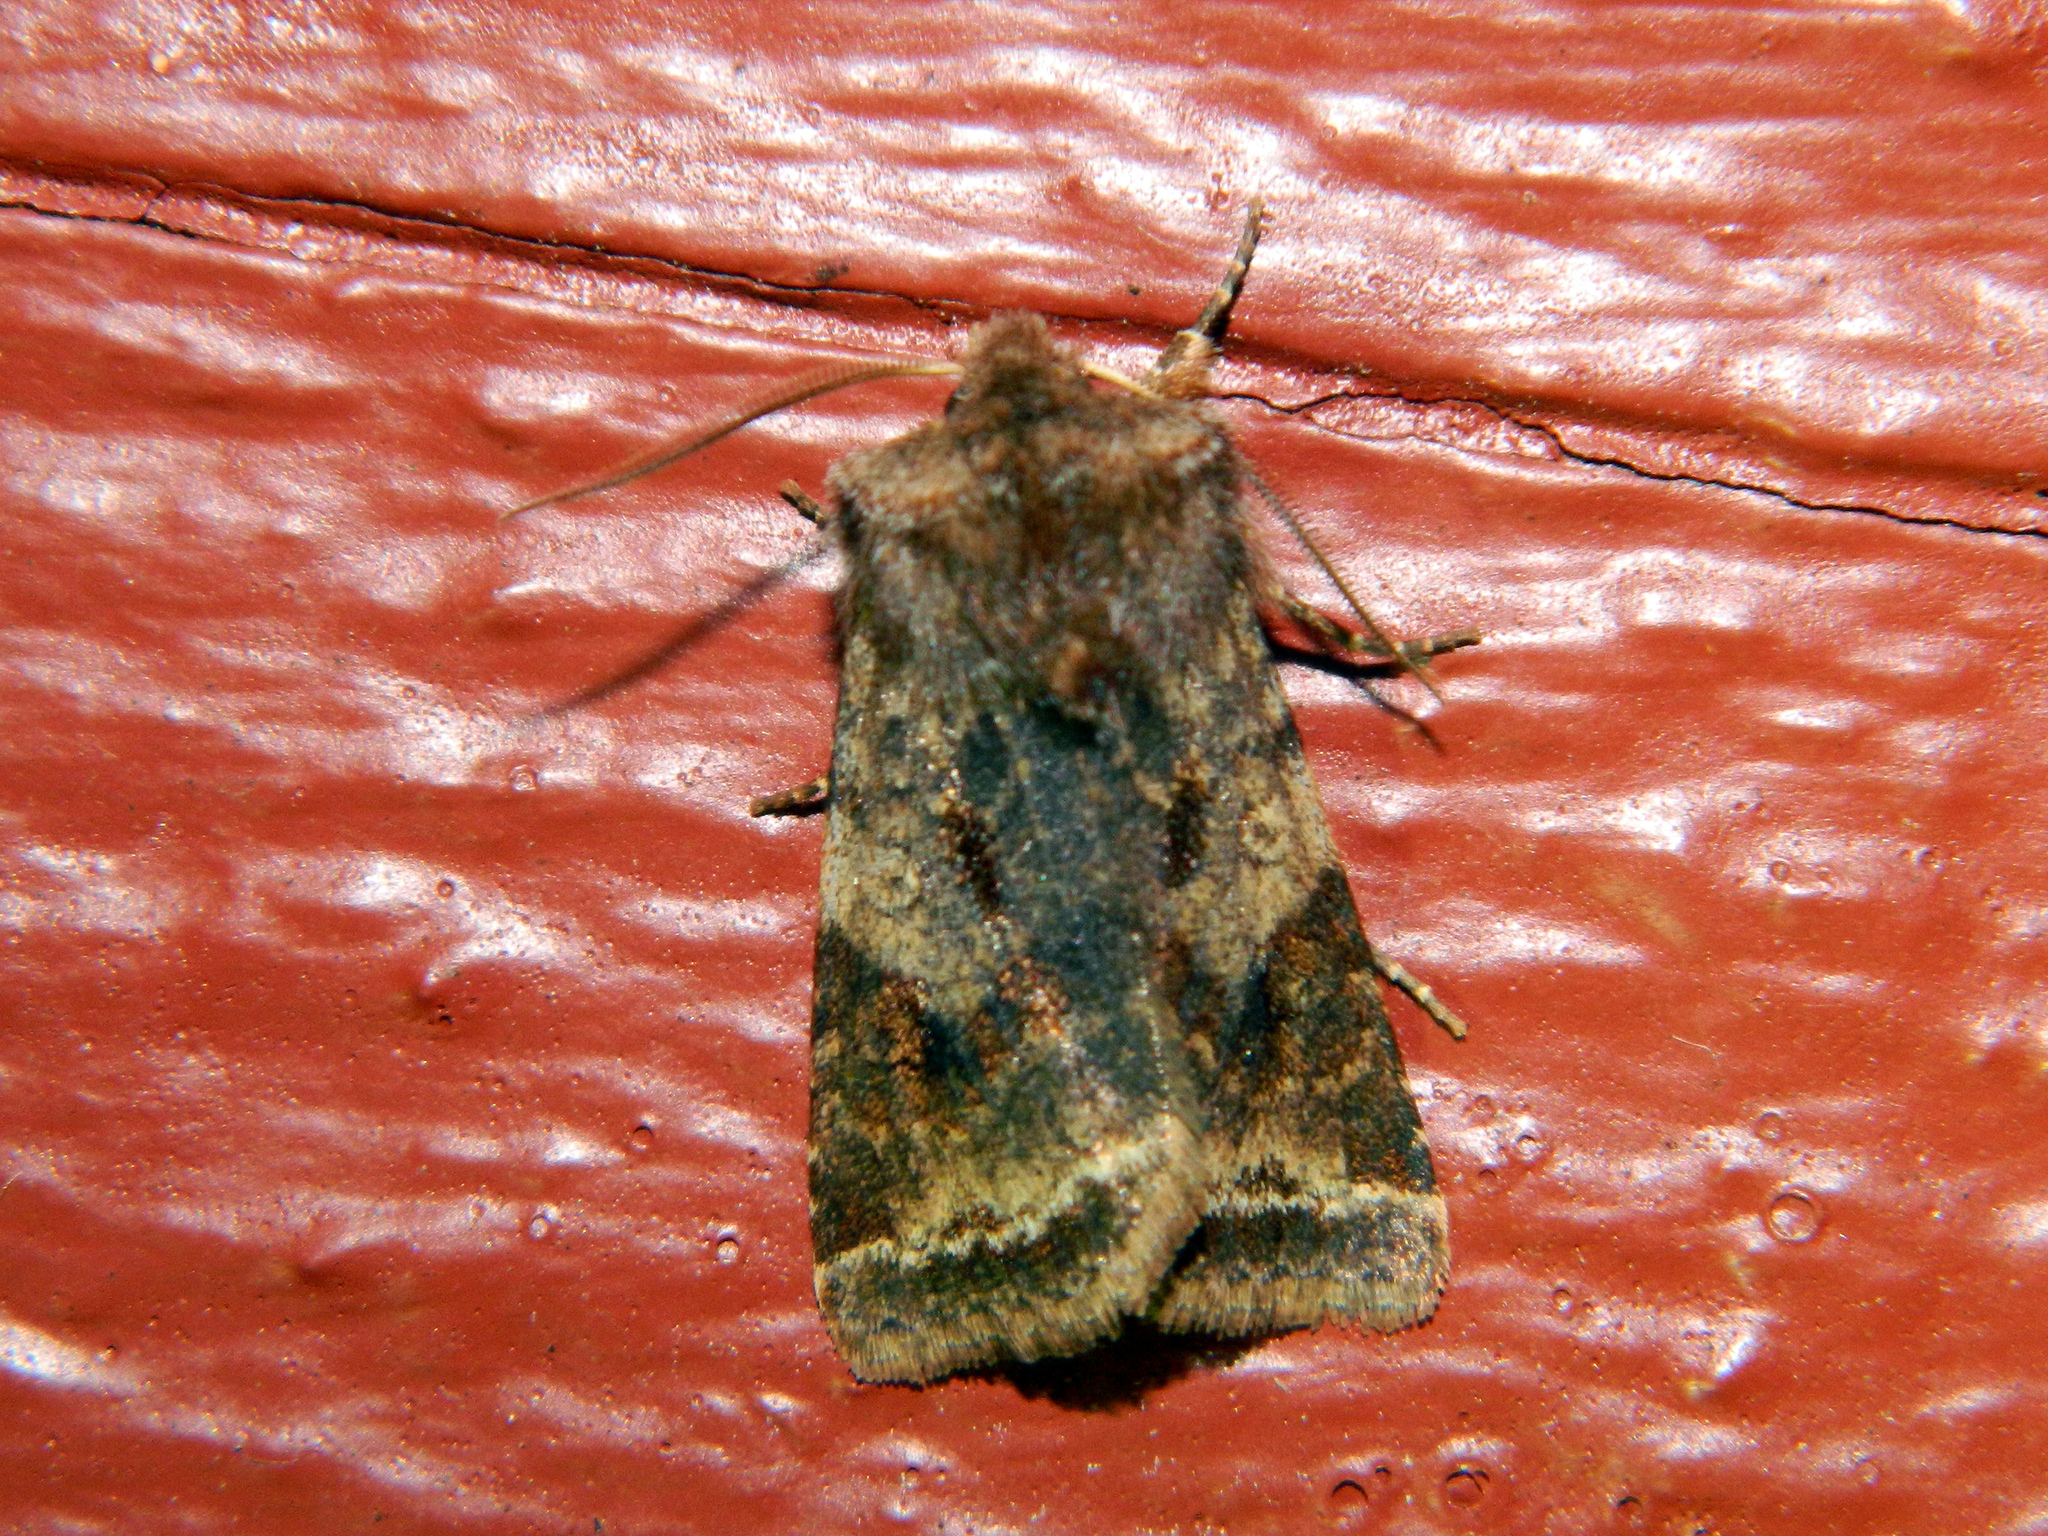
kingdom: Animalia
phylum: Arthropoda
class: Insecta
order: Lepidoptera
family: Noctuidae
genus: Cerastis
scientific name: Cerastis salicarum
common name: Willow dart
